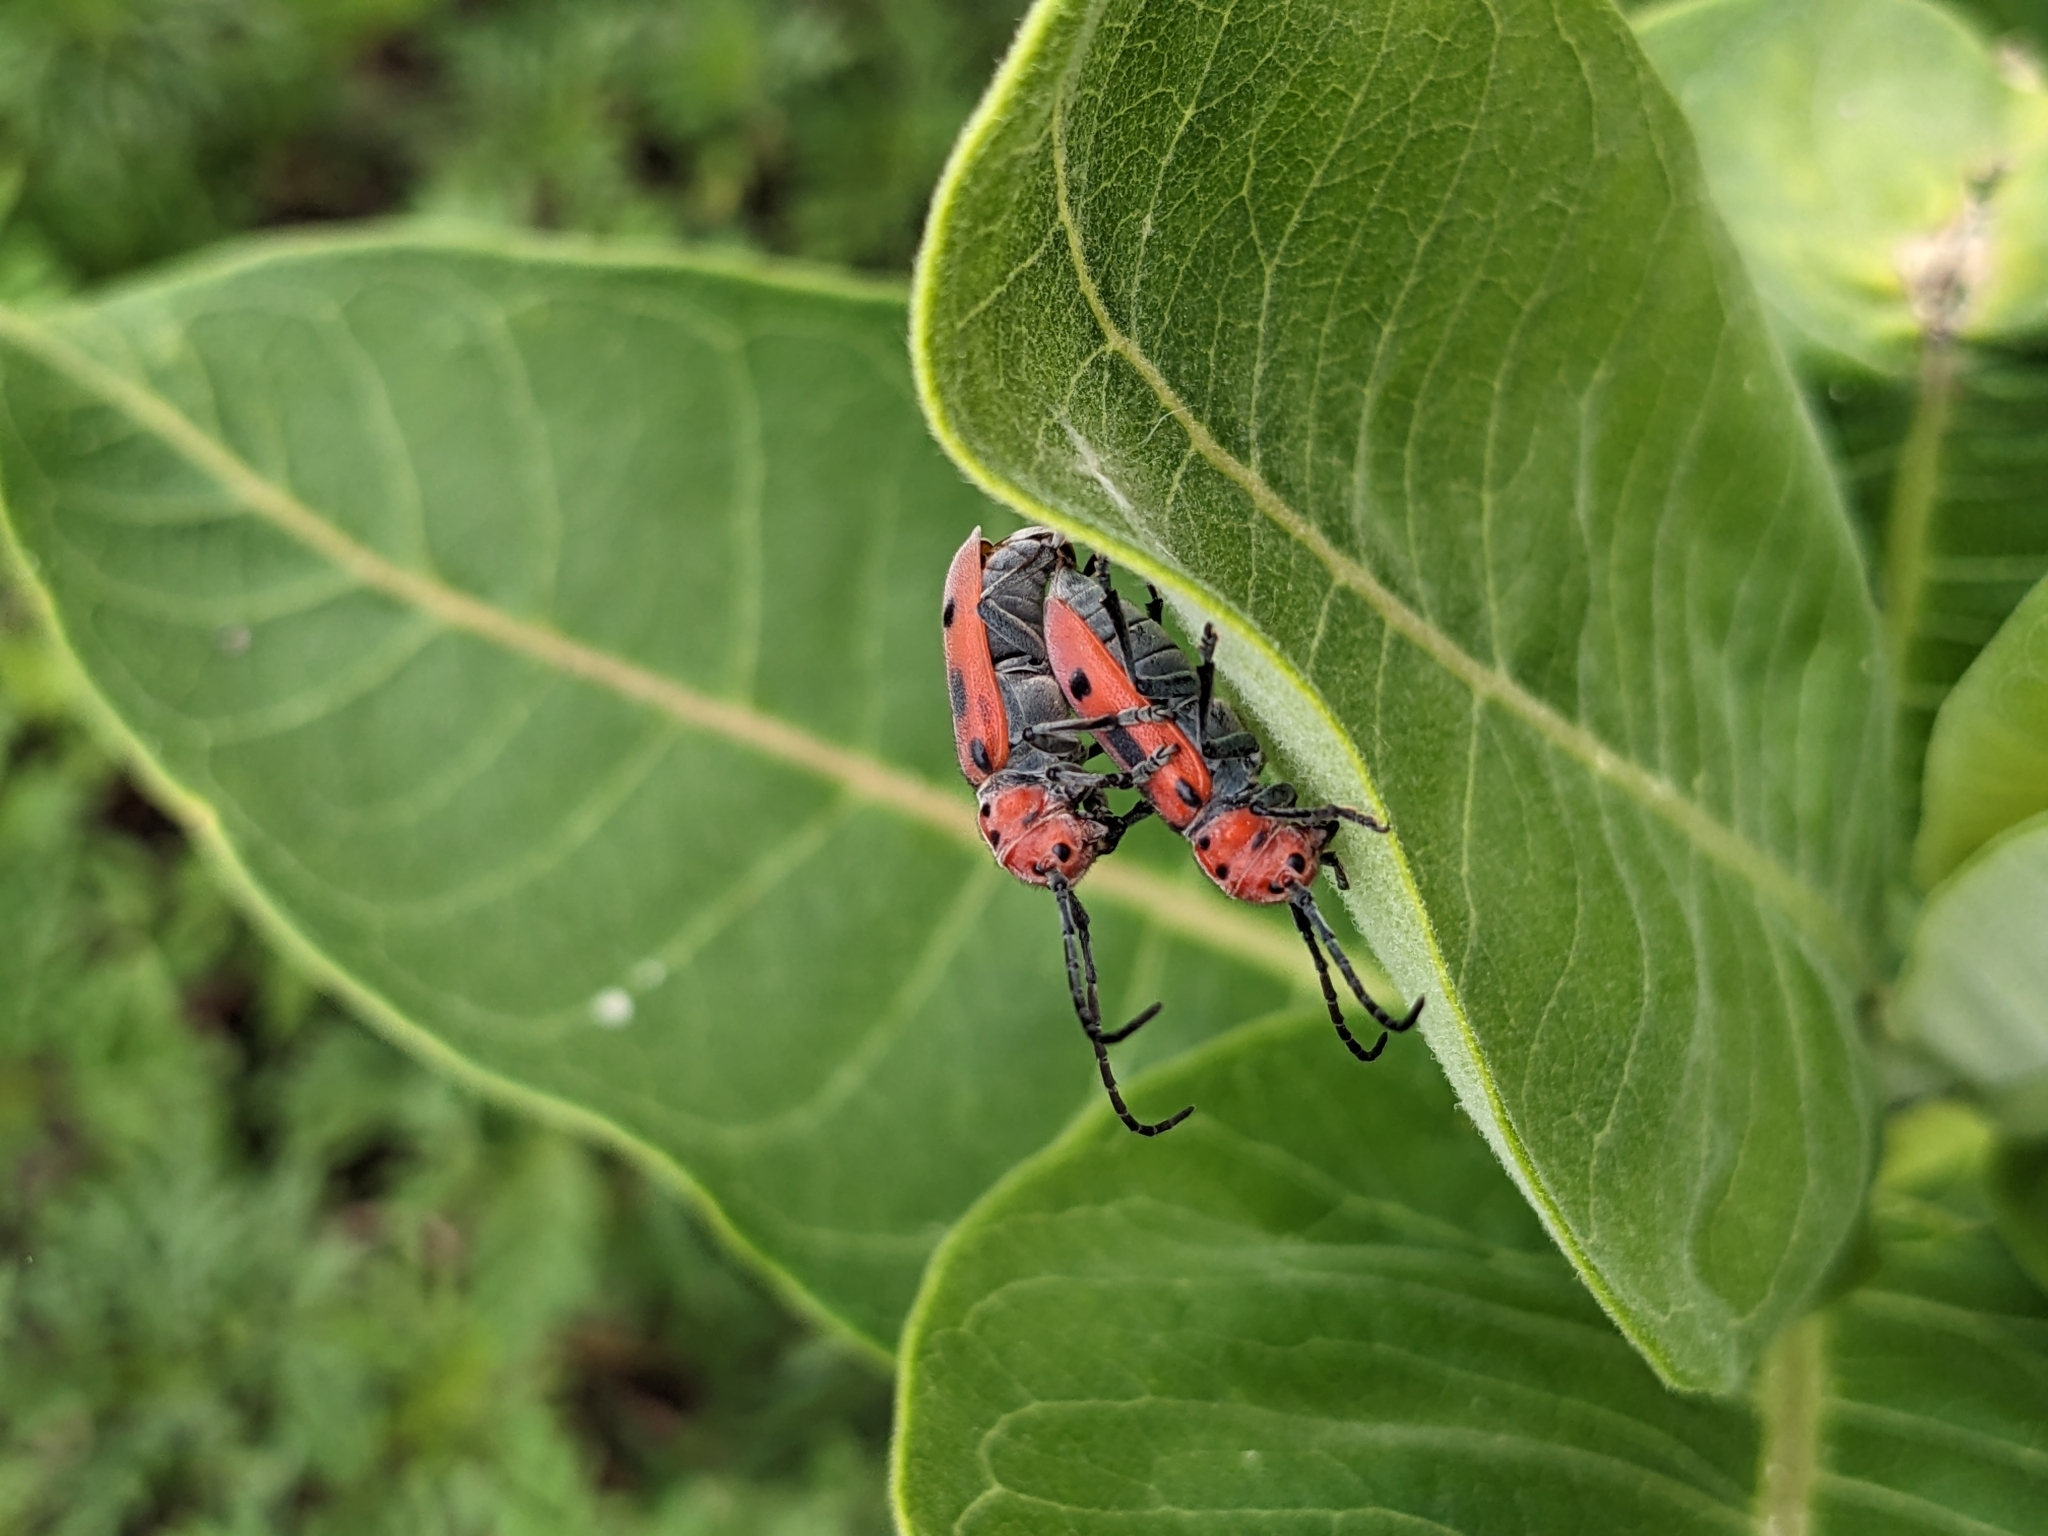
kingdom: Animalia
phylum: Arthropoda
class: Insecta
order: Coleoptera
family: Cerambycidae
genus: Tetraopes
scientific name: Tetraopes tetrophthalmus
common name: Red milkweed beetle
